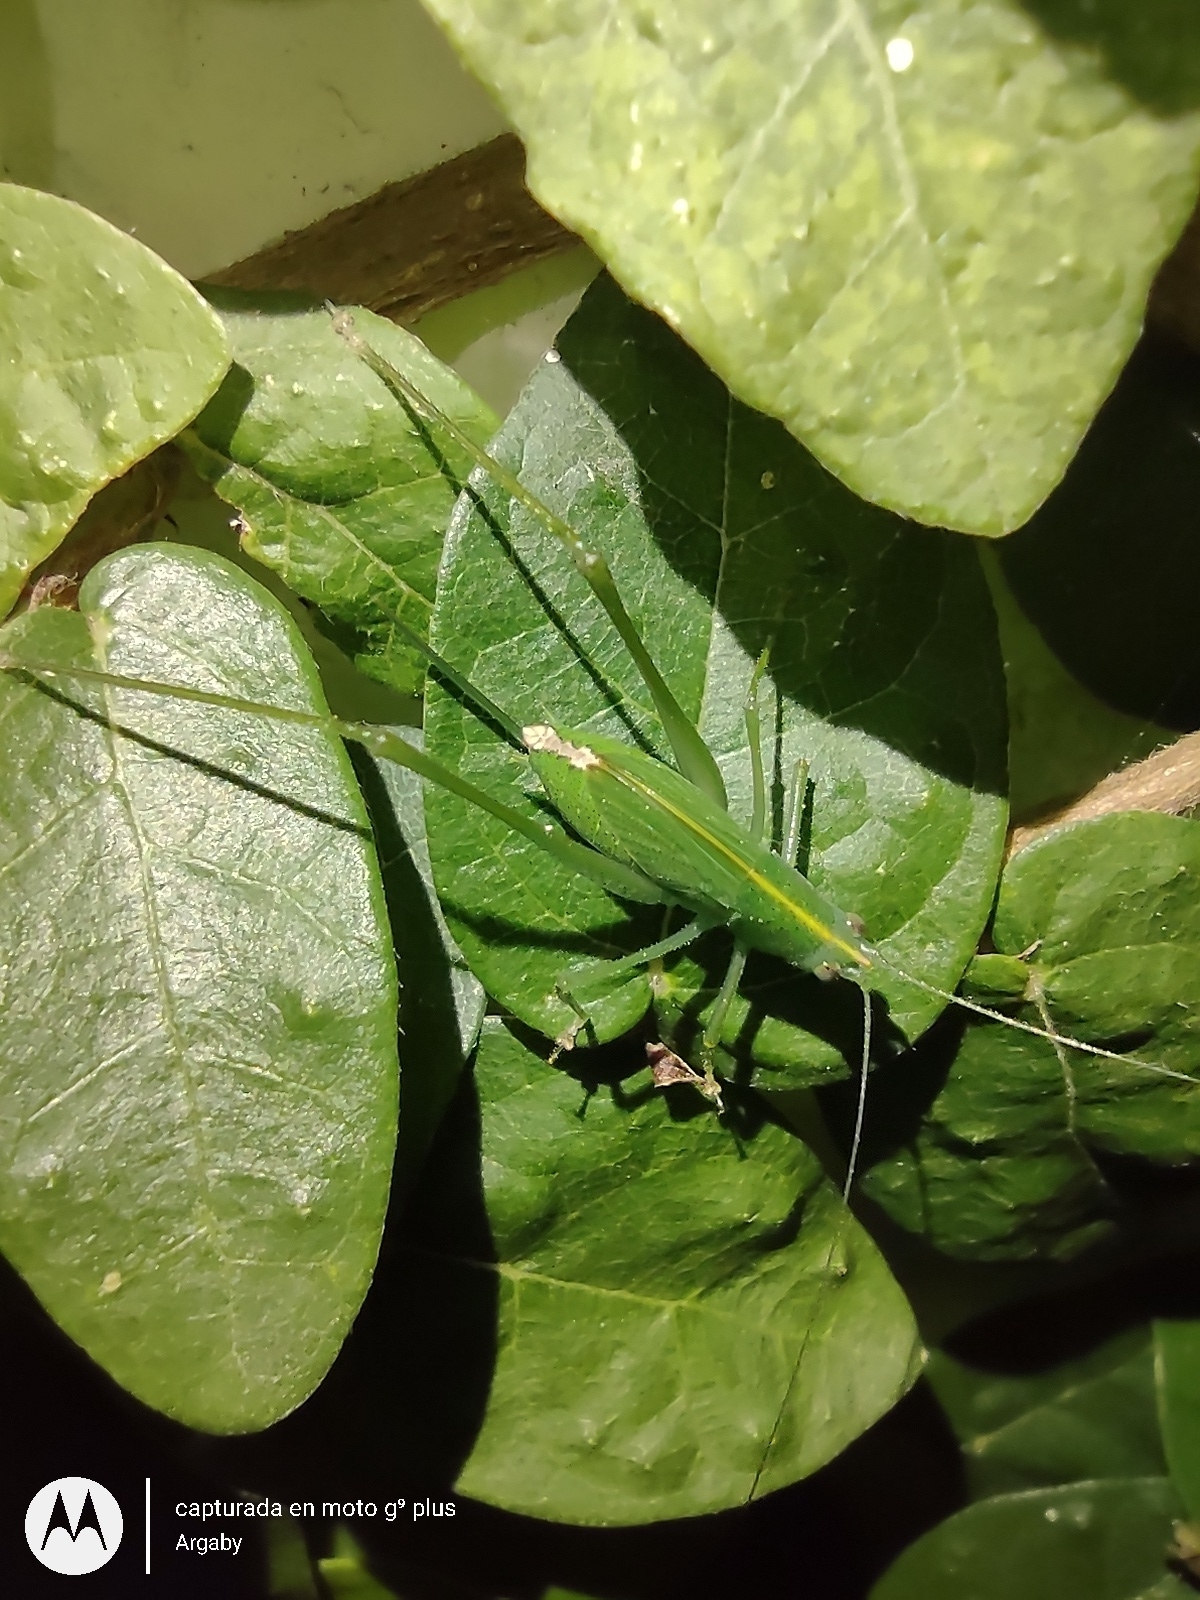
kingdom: Animalia
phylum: Arthropoda
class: Insecta
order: Orthoptera
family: Tettigoniidae
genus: Grammadera
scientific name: Grammadera clara
